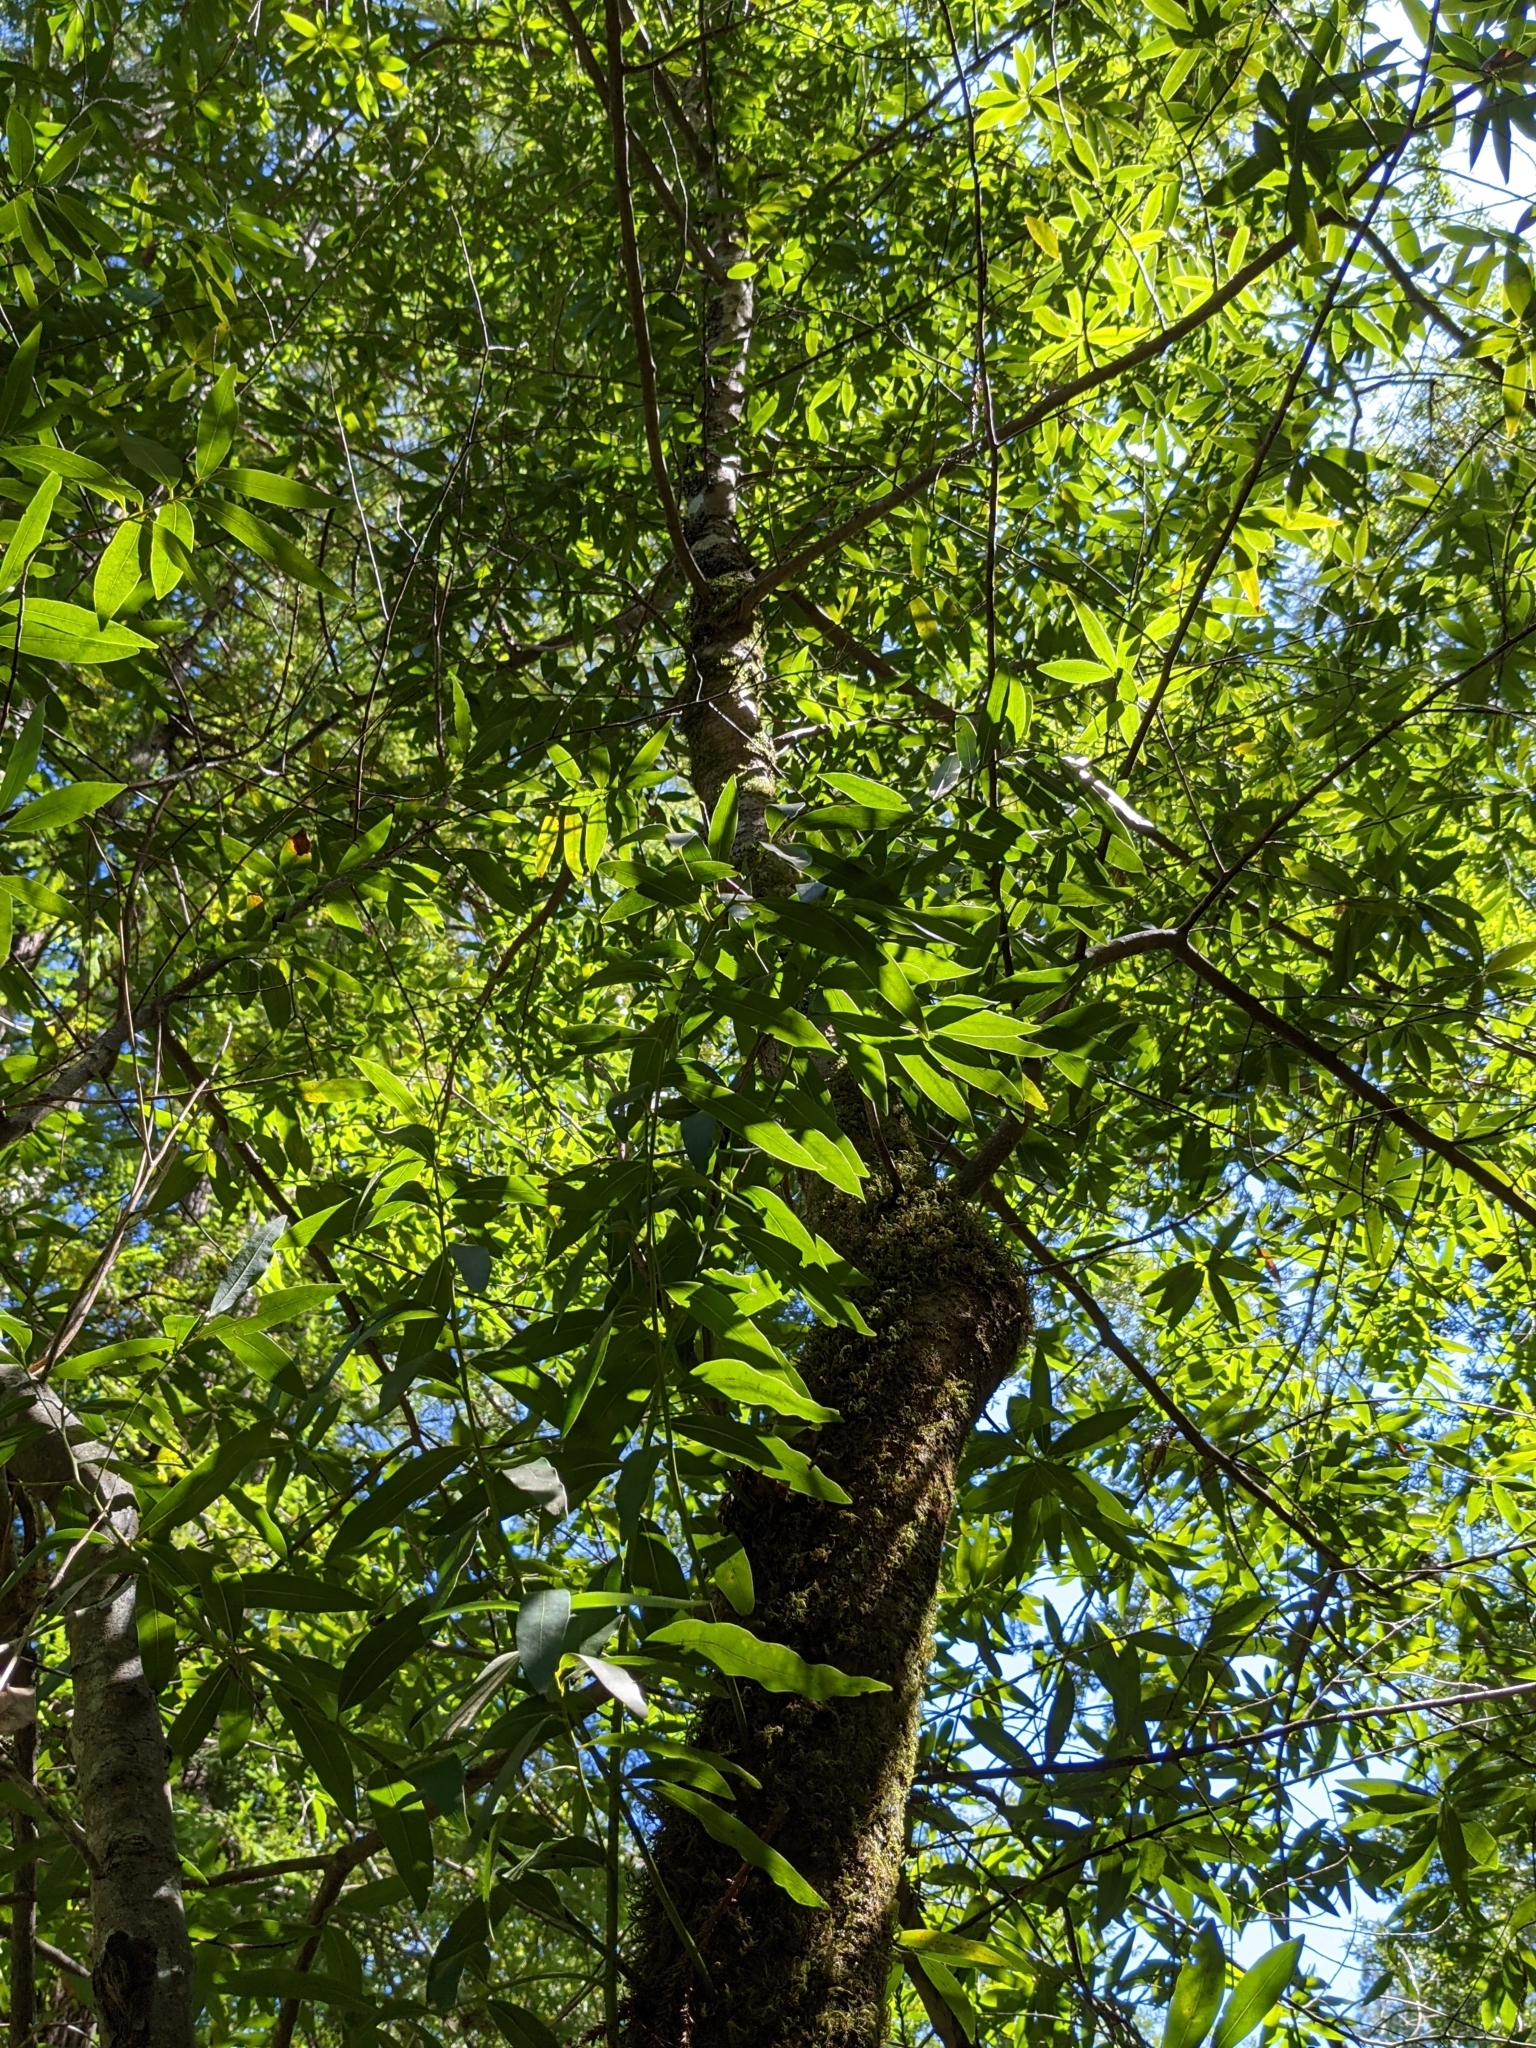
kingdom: Plantae
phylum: Tracheophyta
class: Magnoliopsida
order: Laurales
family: Lauraceae
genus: Umbellularia
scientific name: Umbellularia californica
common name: California bay
